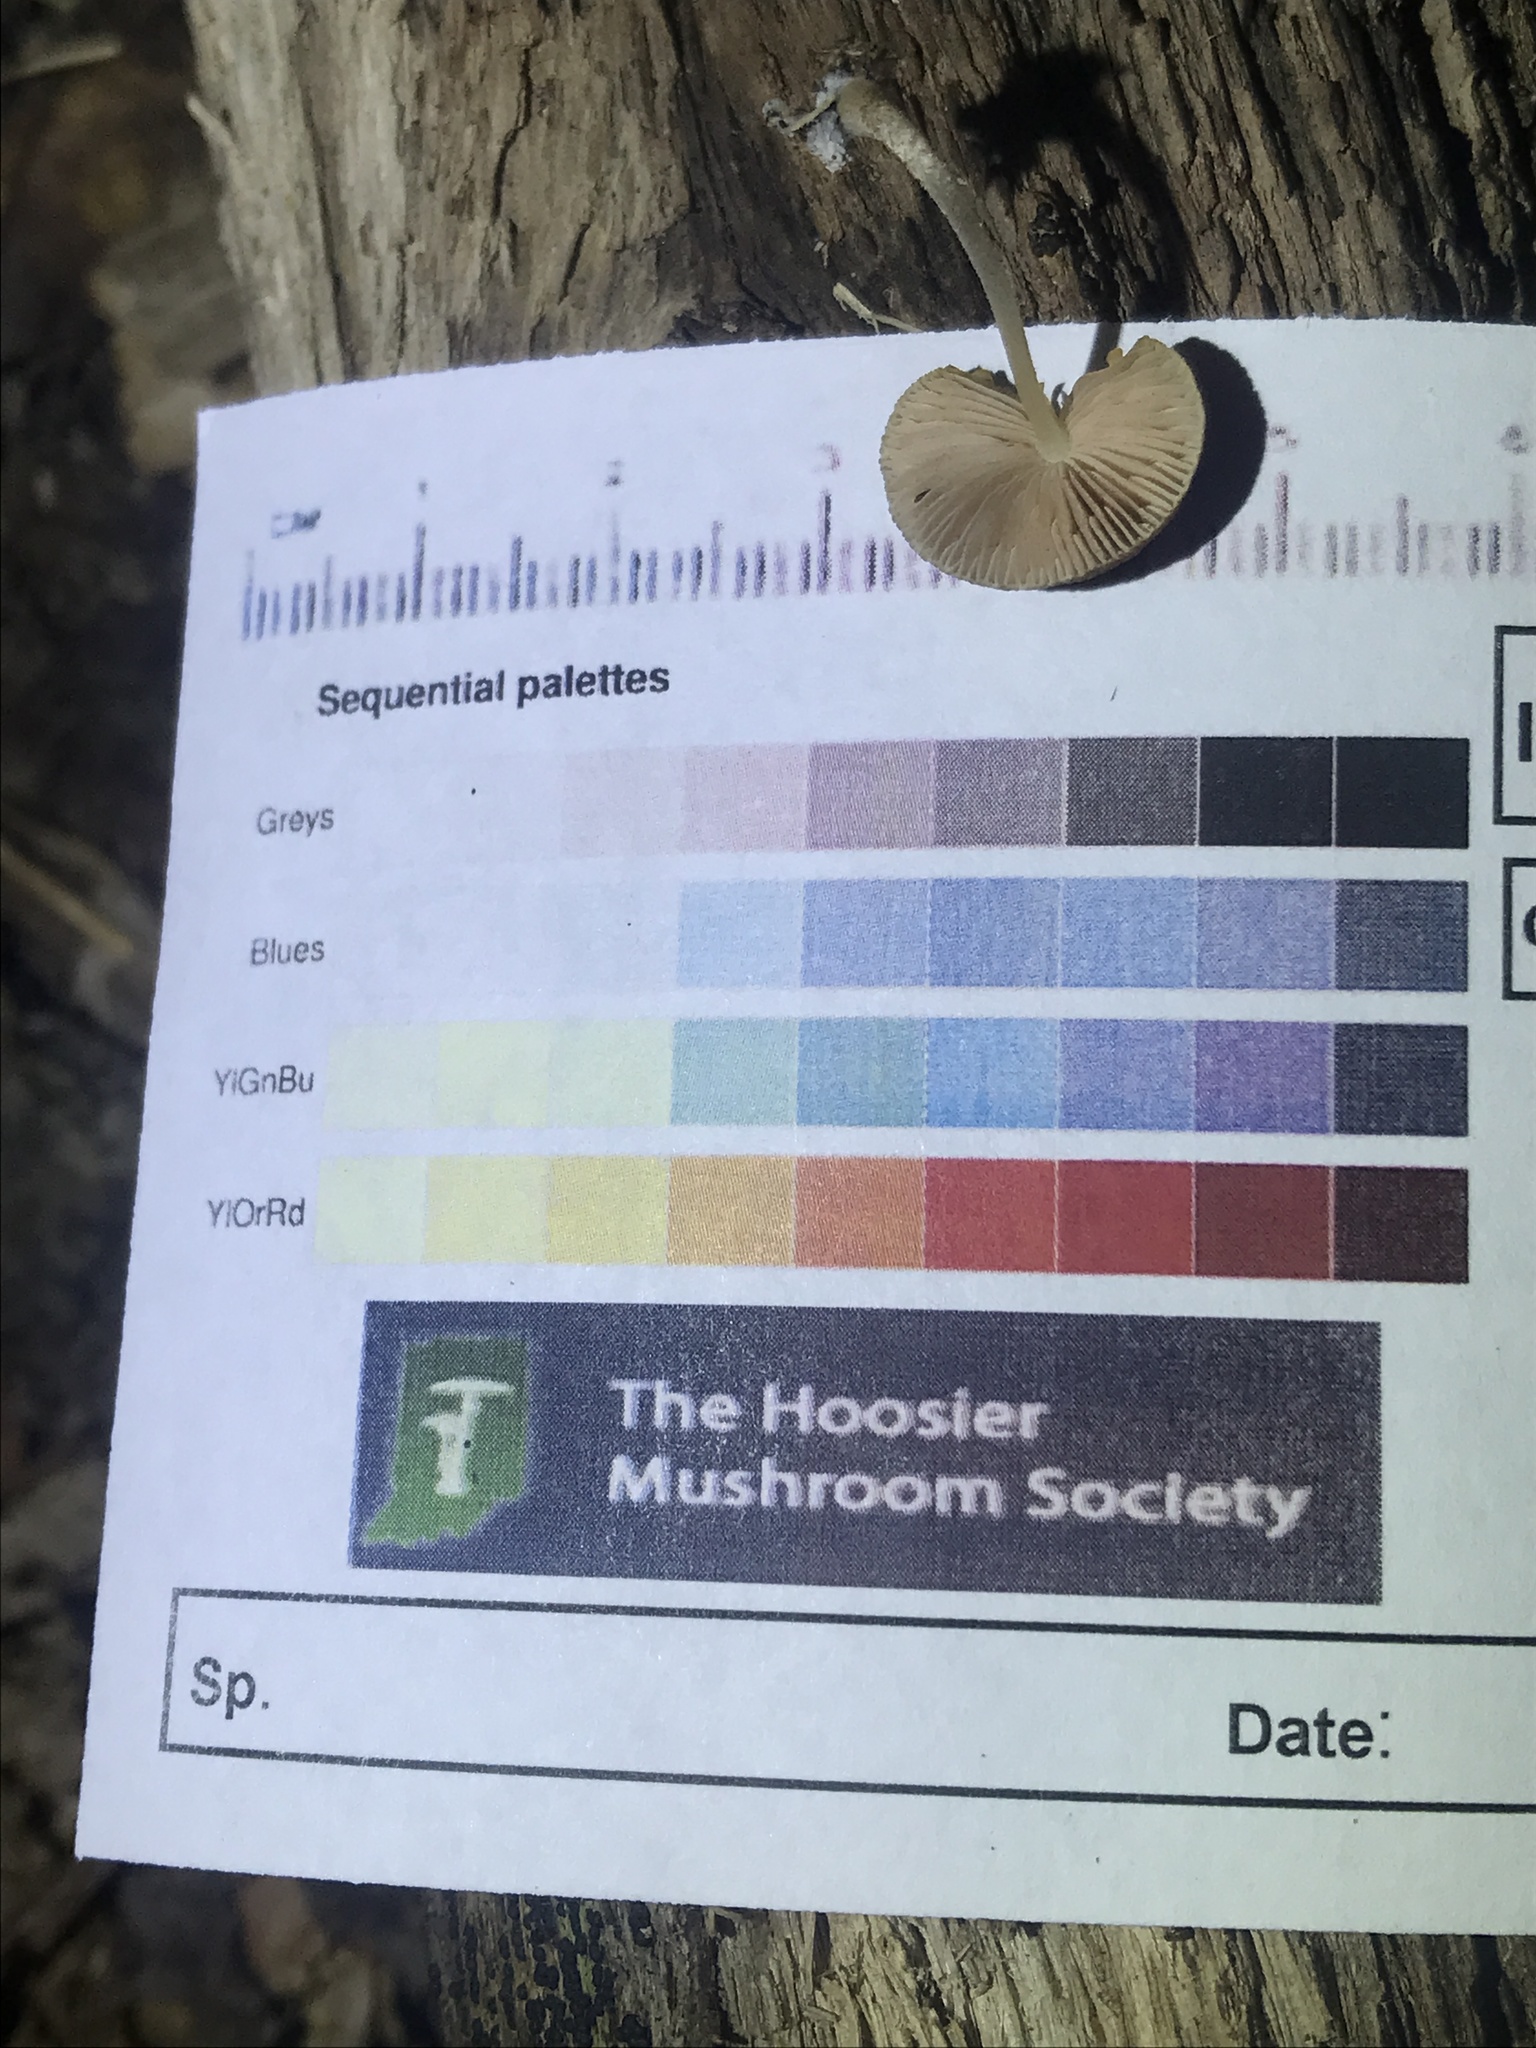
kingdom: Fungi
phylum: Basidiomycota
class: Agaricomycetes
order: Agaricales
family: Pluteaceae
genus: Pluteus
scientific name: Pluteus podospileus
